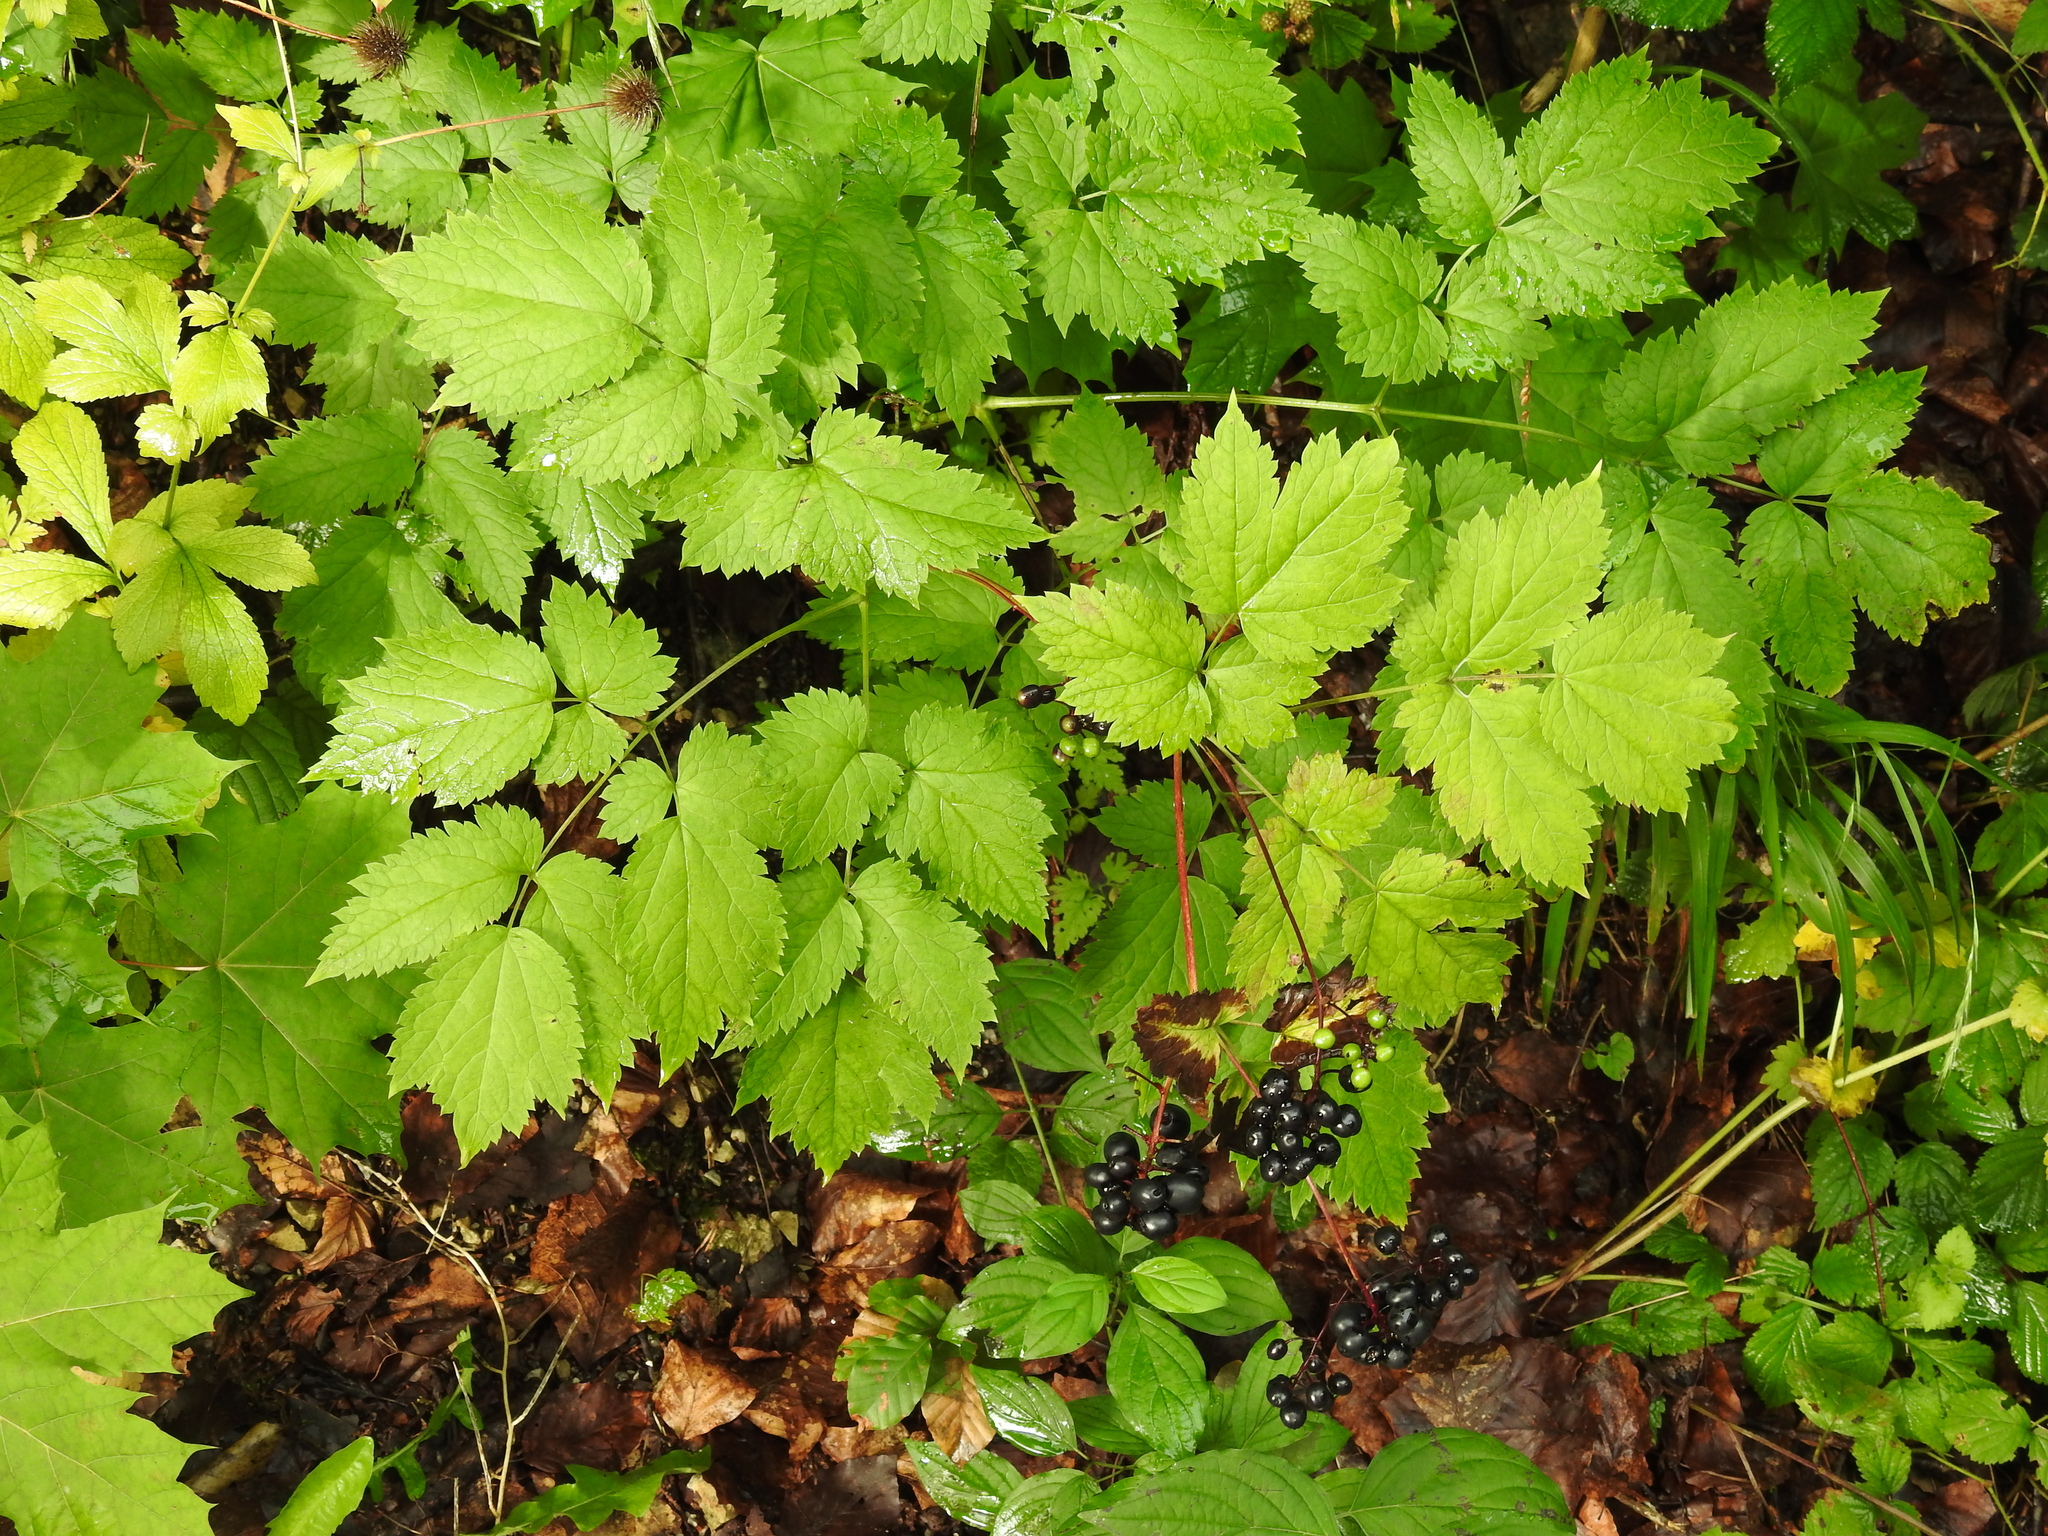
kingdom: Plantae
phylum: Tracheophyta
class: Magnoliopsida
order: Ranunculales
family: Ranunculaceae
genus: Actaea
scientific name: Actaea spicata
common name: Baneberry
